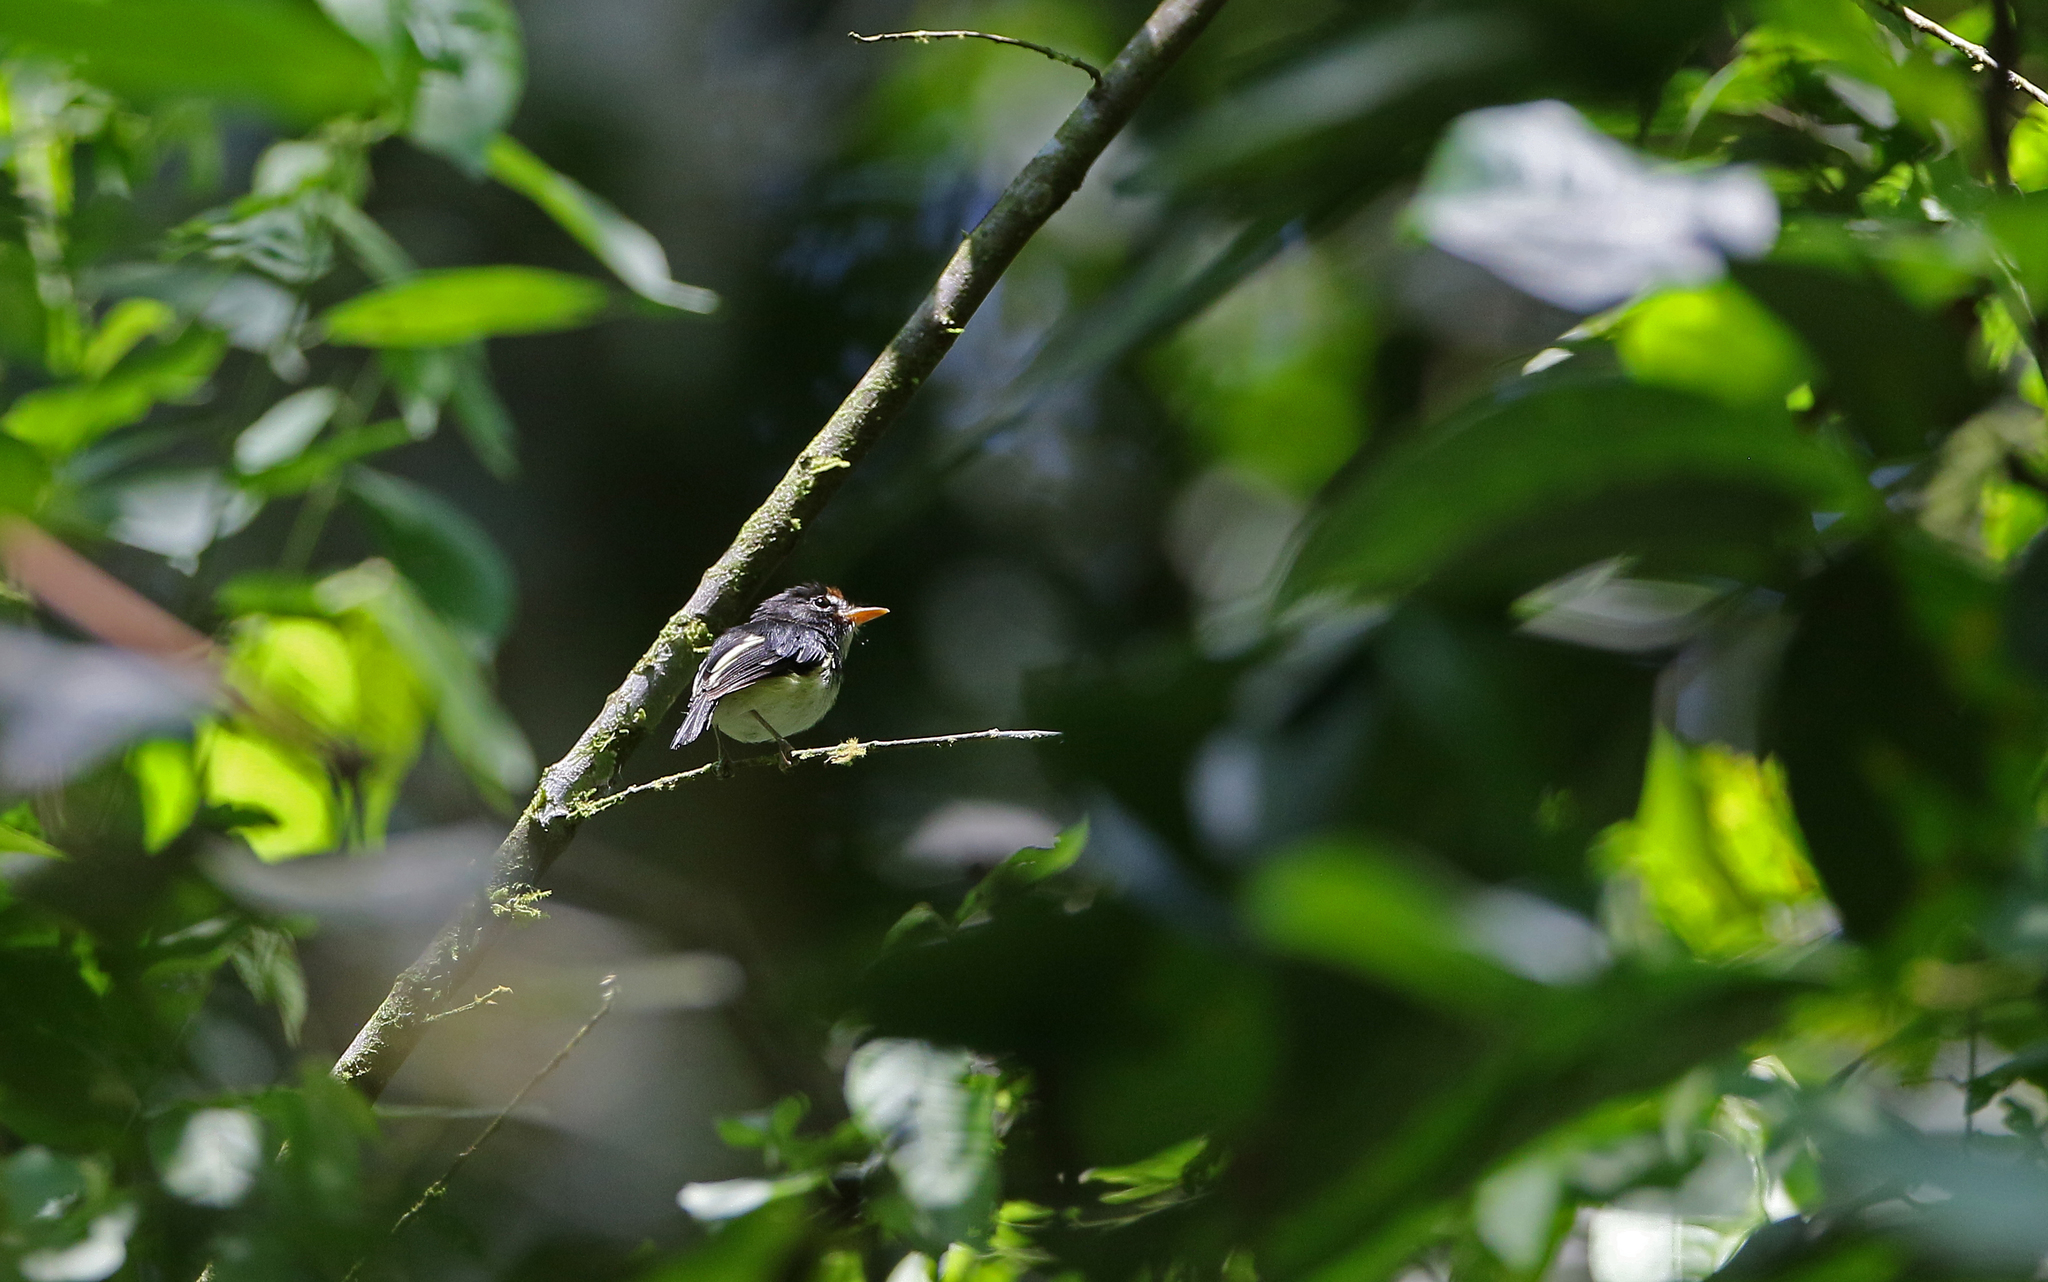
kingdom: Animalia
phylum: Chordata
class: Aves
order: Passeriformes
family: Tyrannidae
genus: Poecilotriccus
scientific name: Poecilotriccus capitalis
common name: Black-and-white tody-flycatcher
